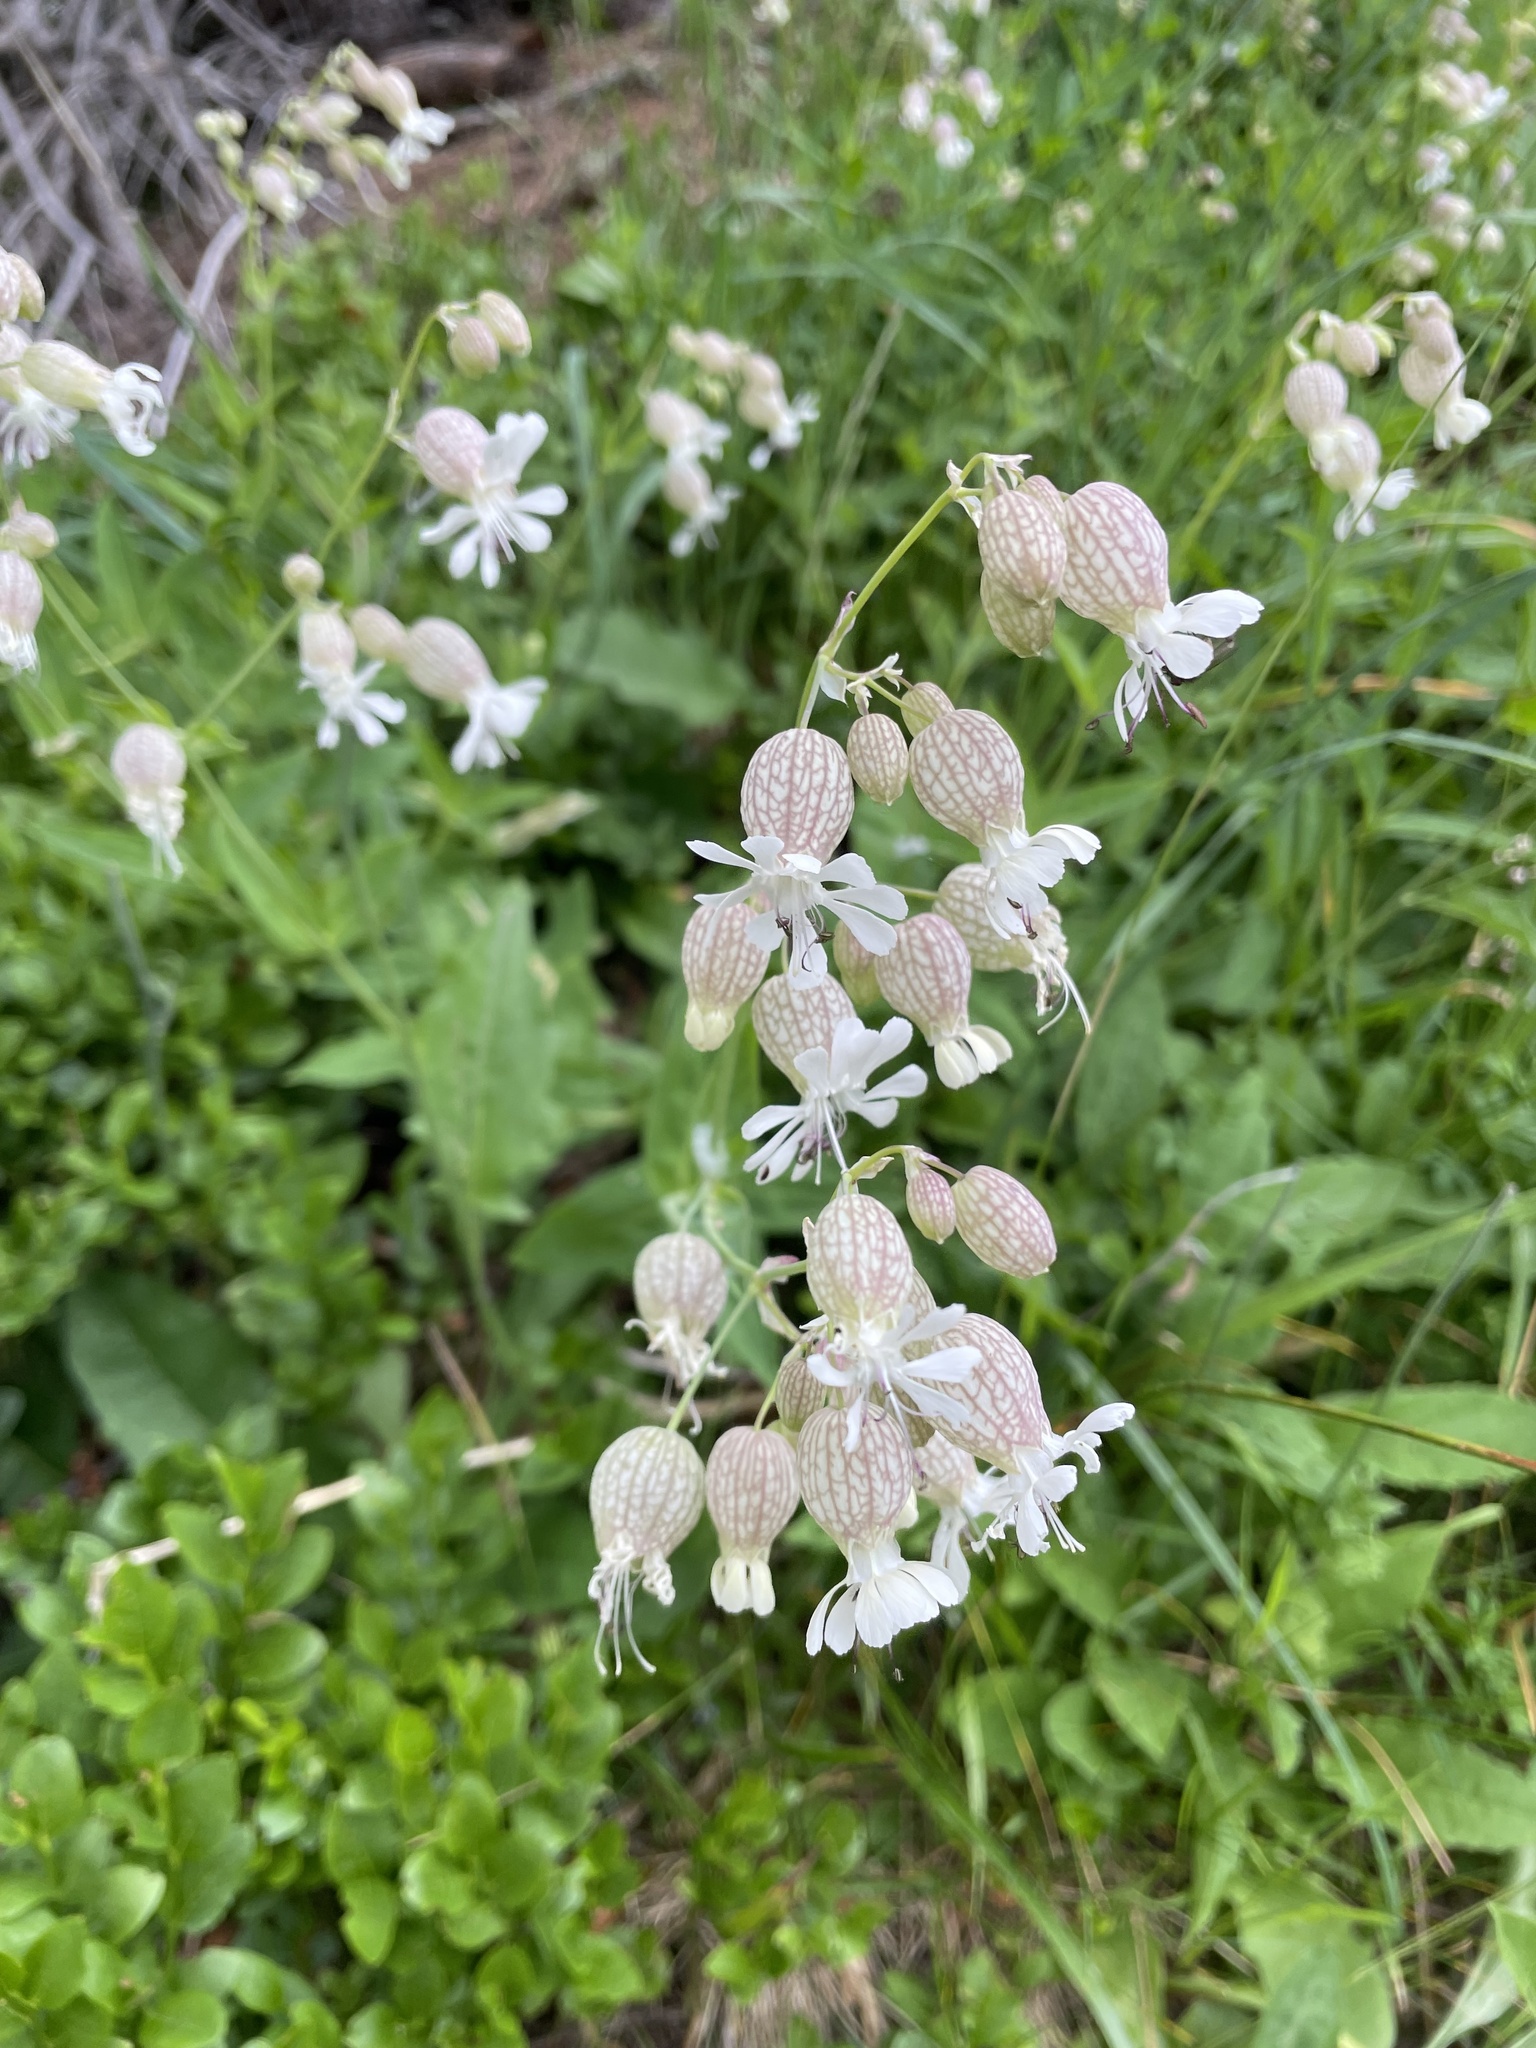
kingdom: Plantae
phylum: Tracheophyta
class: Magnoliopsida
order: Caryophyllales
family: Caryophyllaceae
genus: Silene
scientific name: Silene vulgaris
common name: Bladder campion
